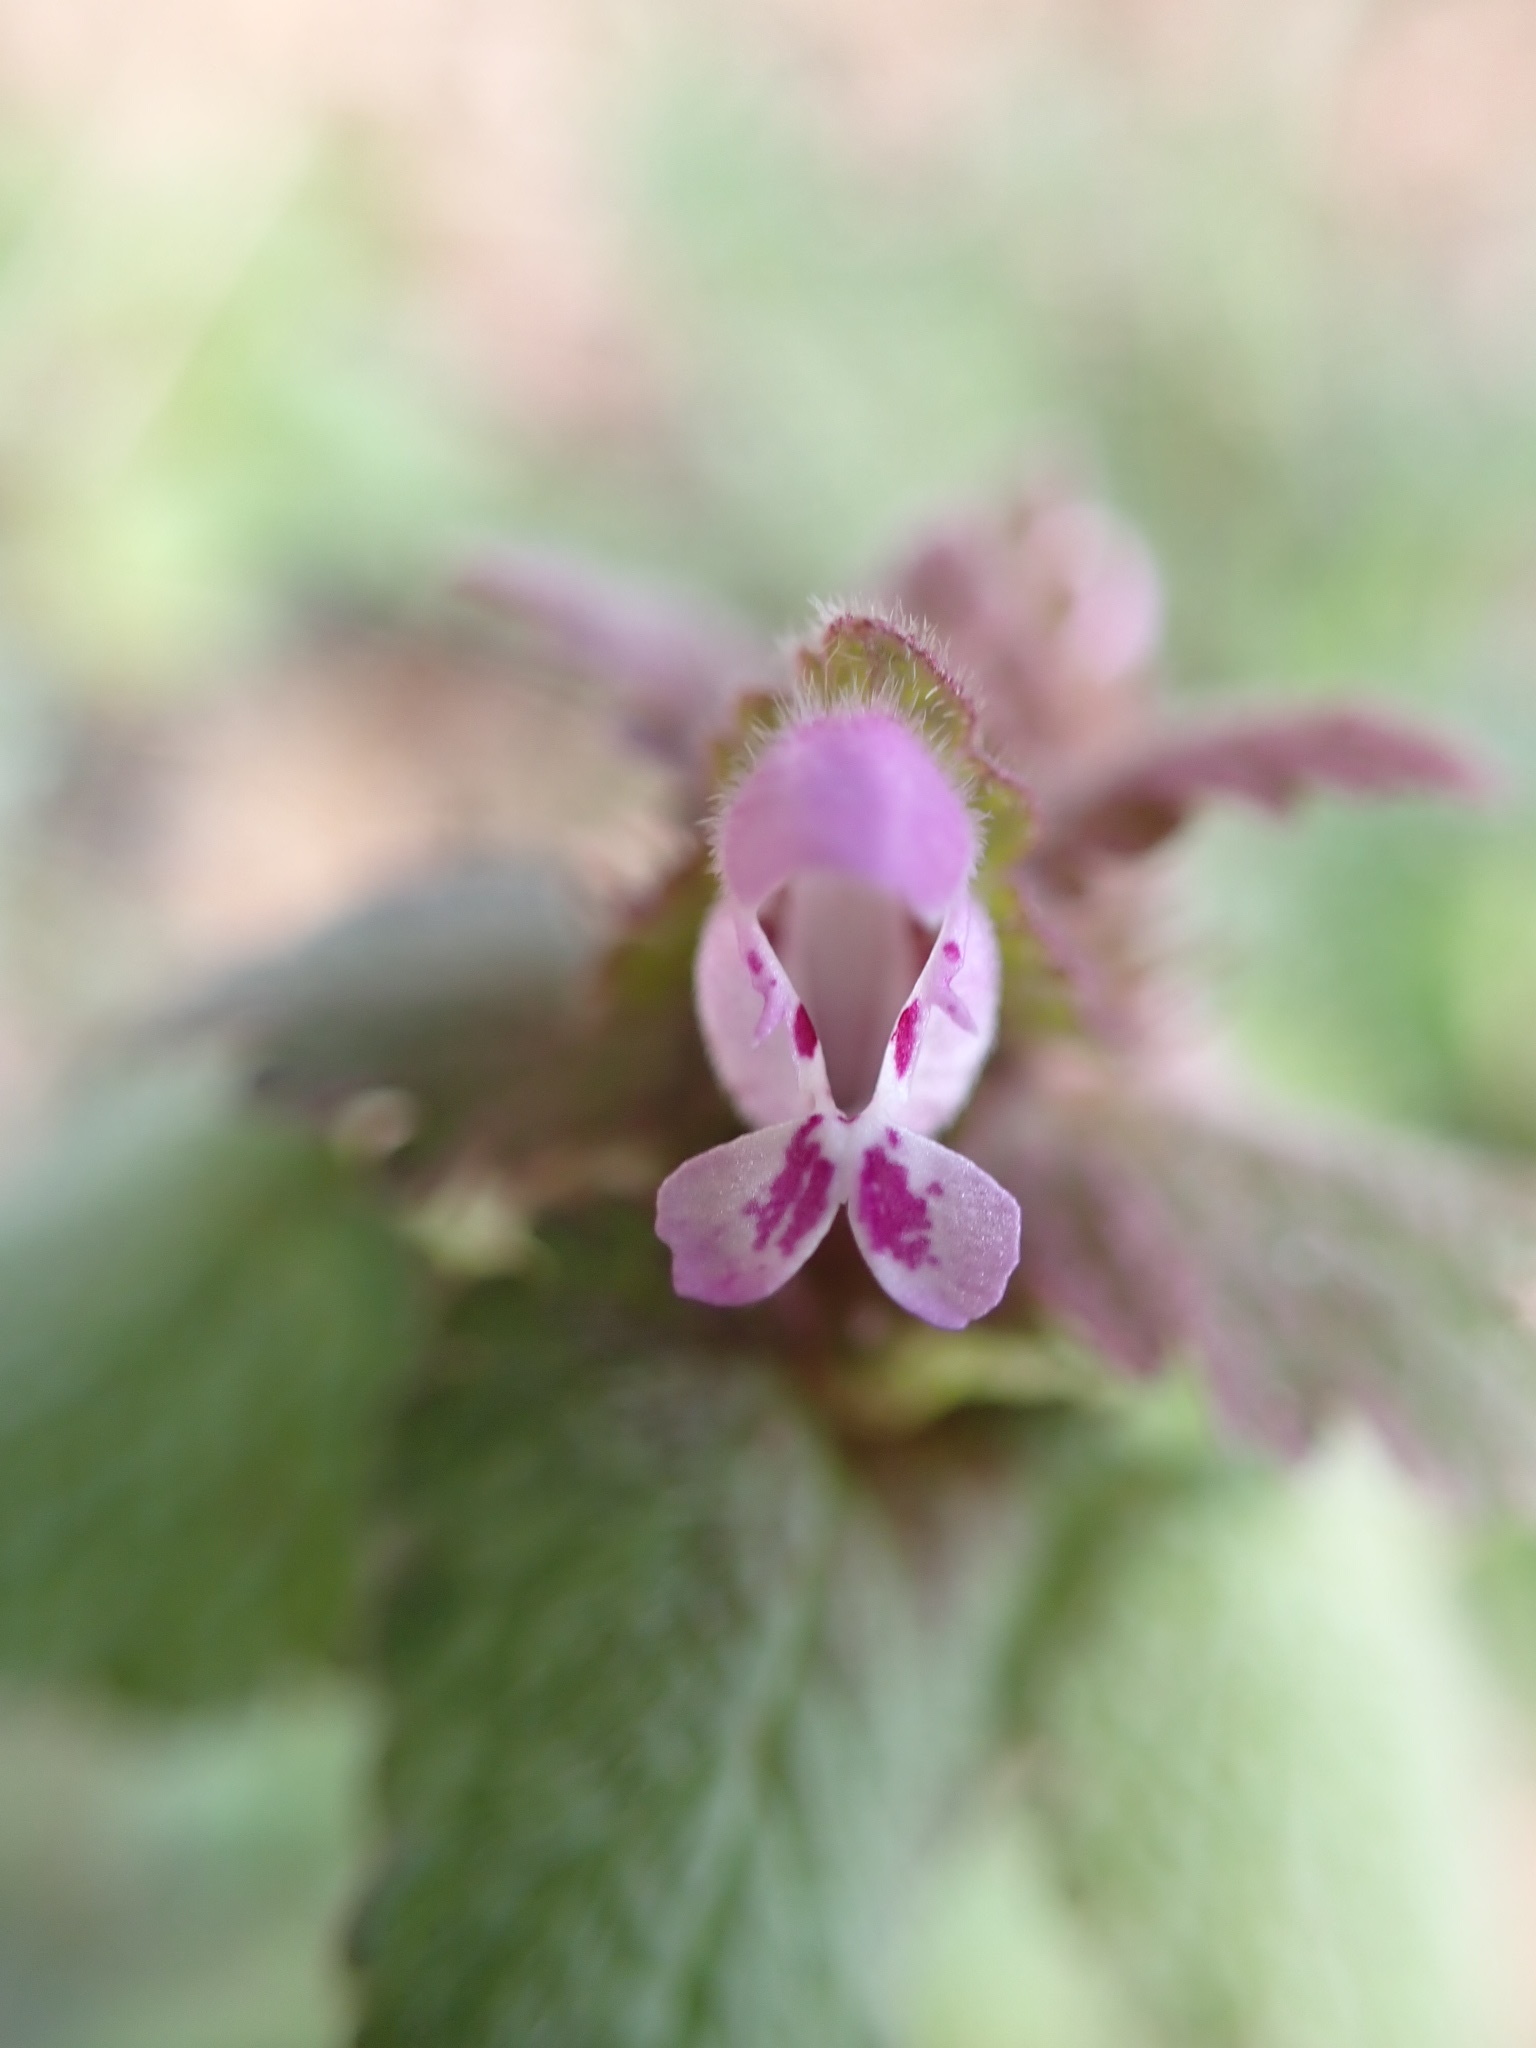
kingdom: Plantae
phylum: Tracheophyta
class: Magnoliopsida
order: Lamiales
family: Lamiaceae
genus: Lamium
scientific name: Lamium purpureum
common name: Red dead-nettle
